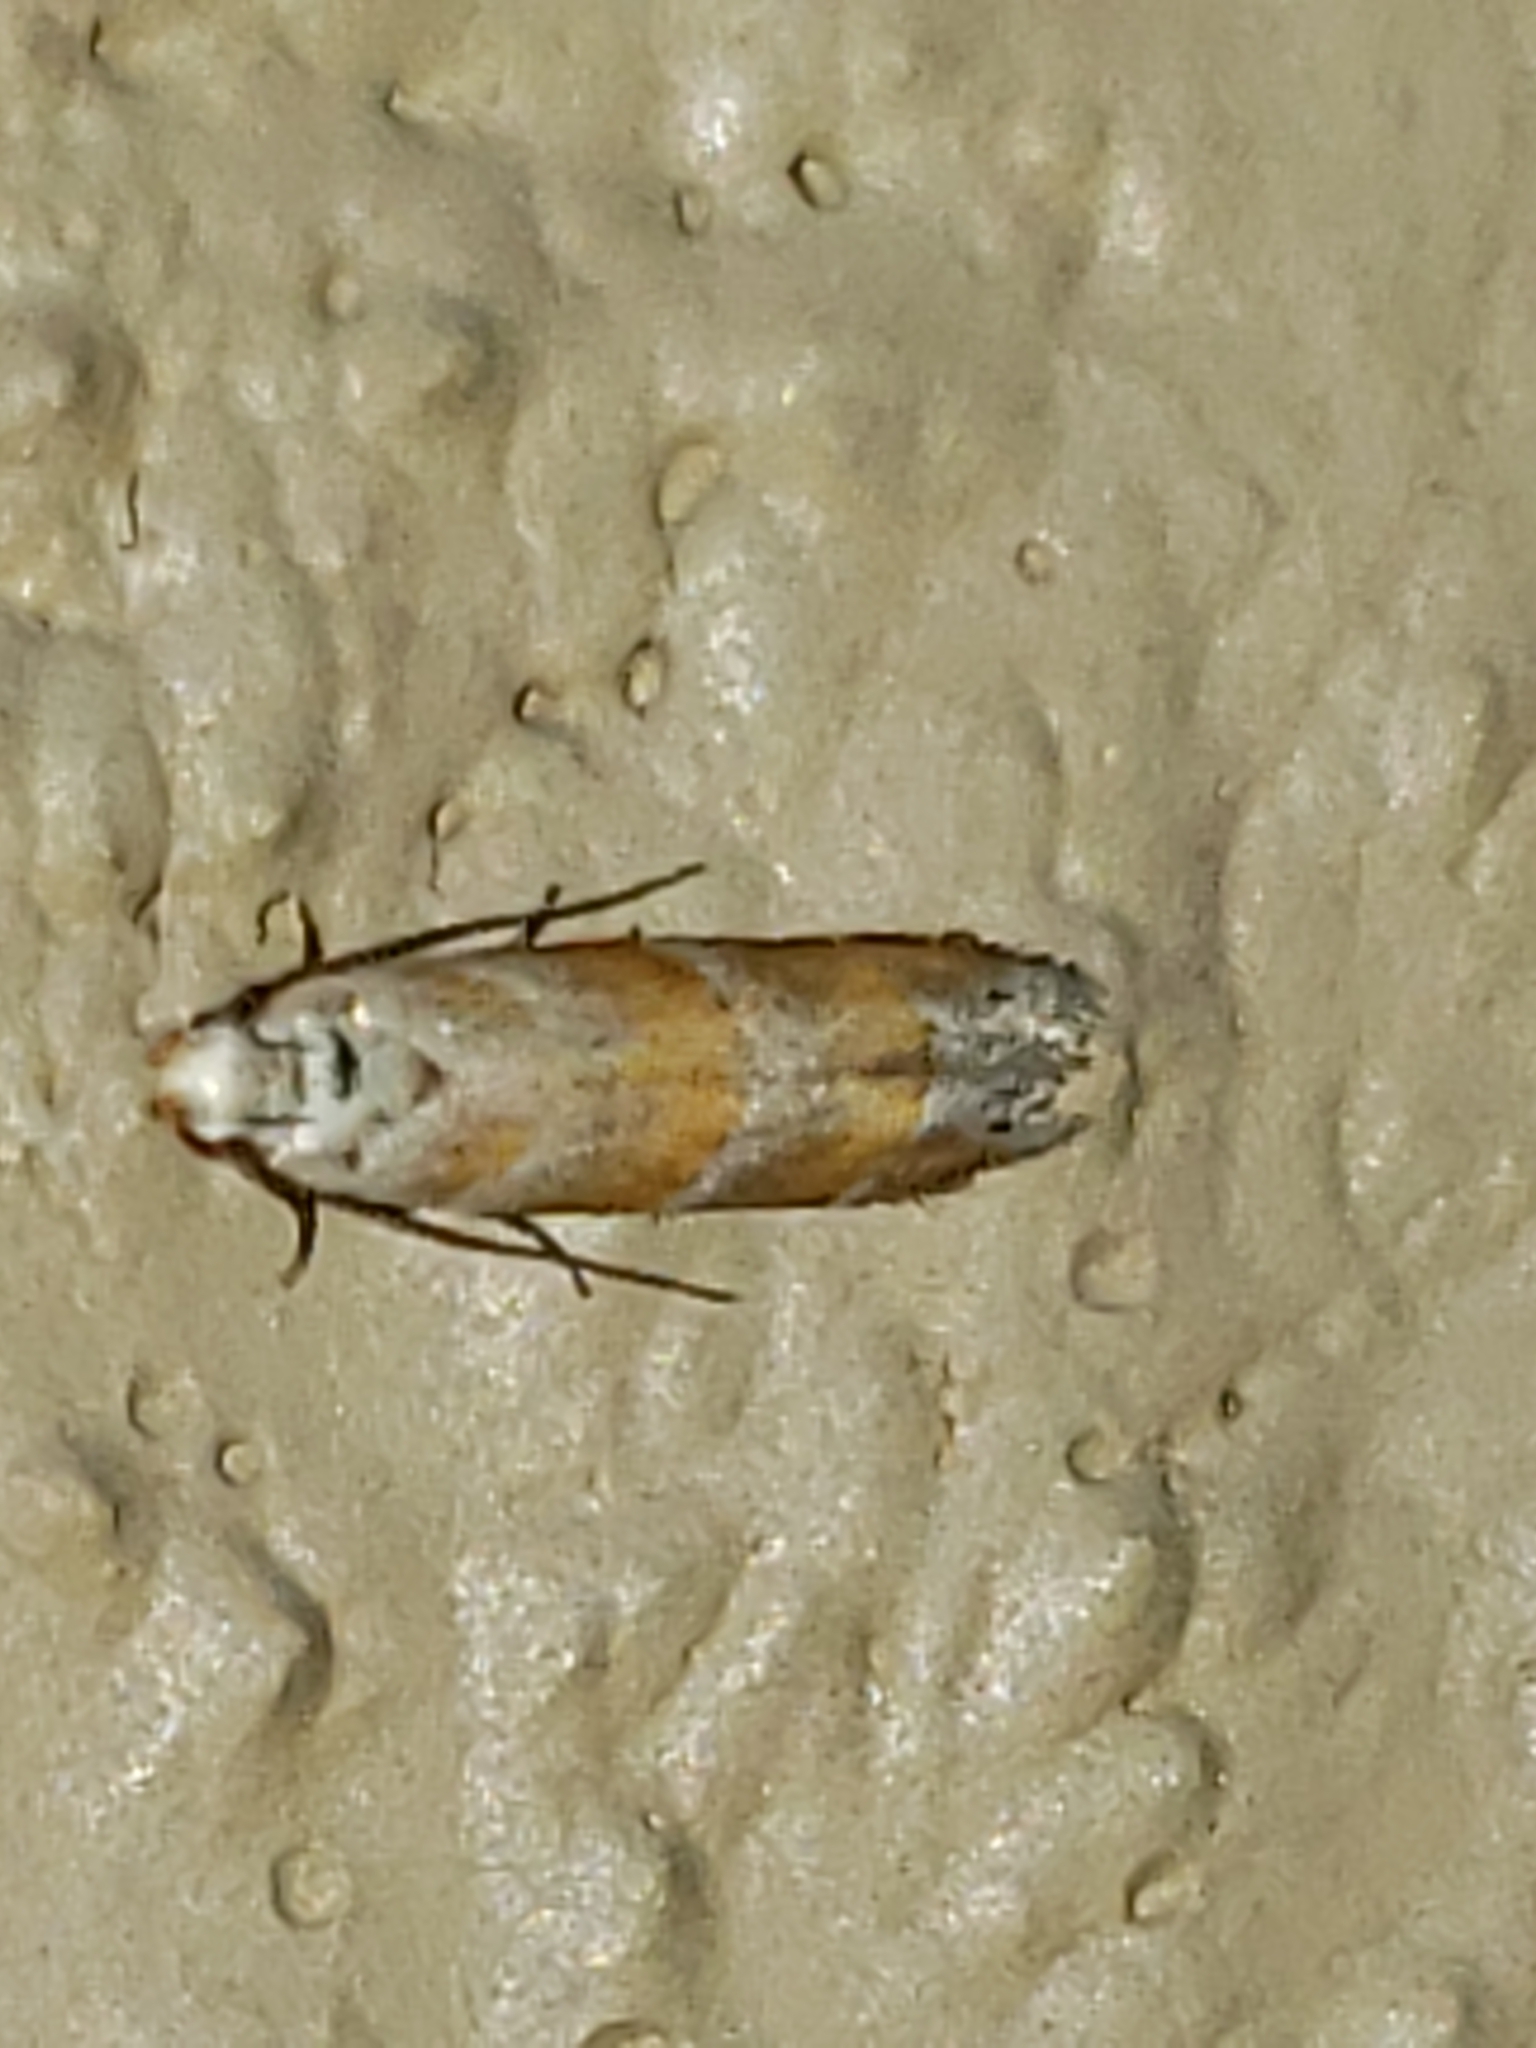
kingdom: Animalia
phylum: Arthropoda
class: Insecta
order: Lepidoptera
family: Gelechiidae
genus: Battaristis
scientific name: Battaristis vittella
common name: Orange stripe-backed moth
